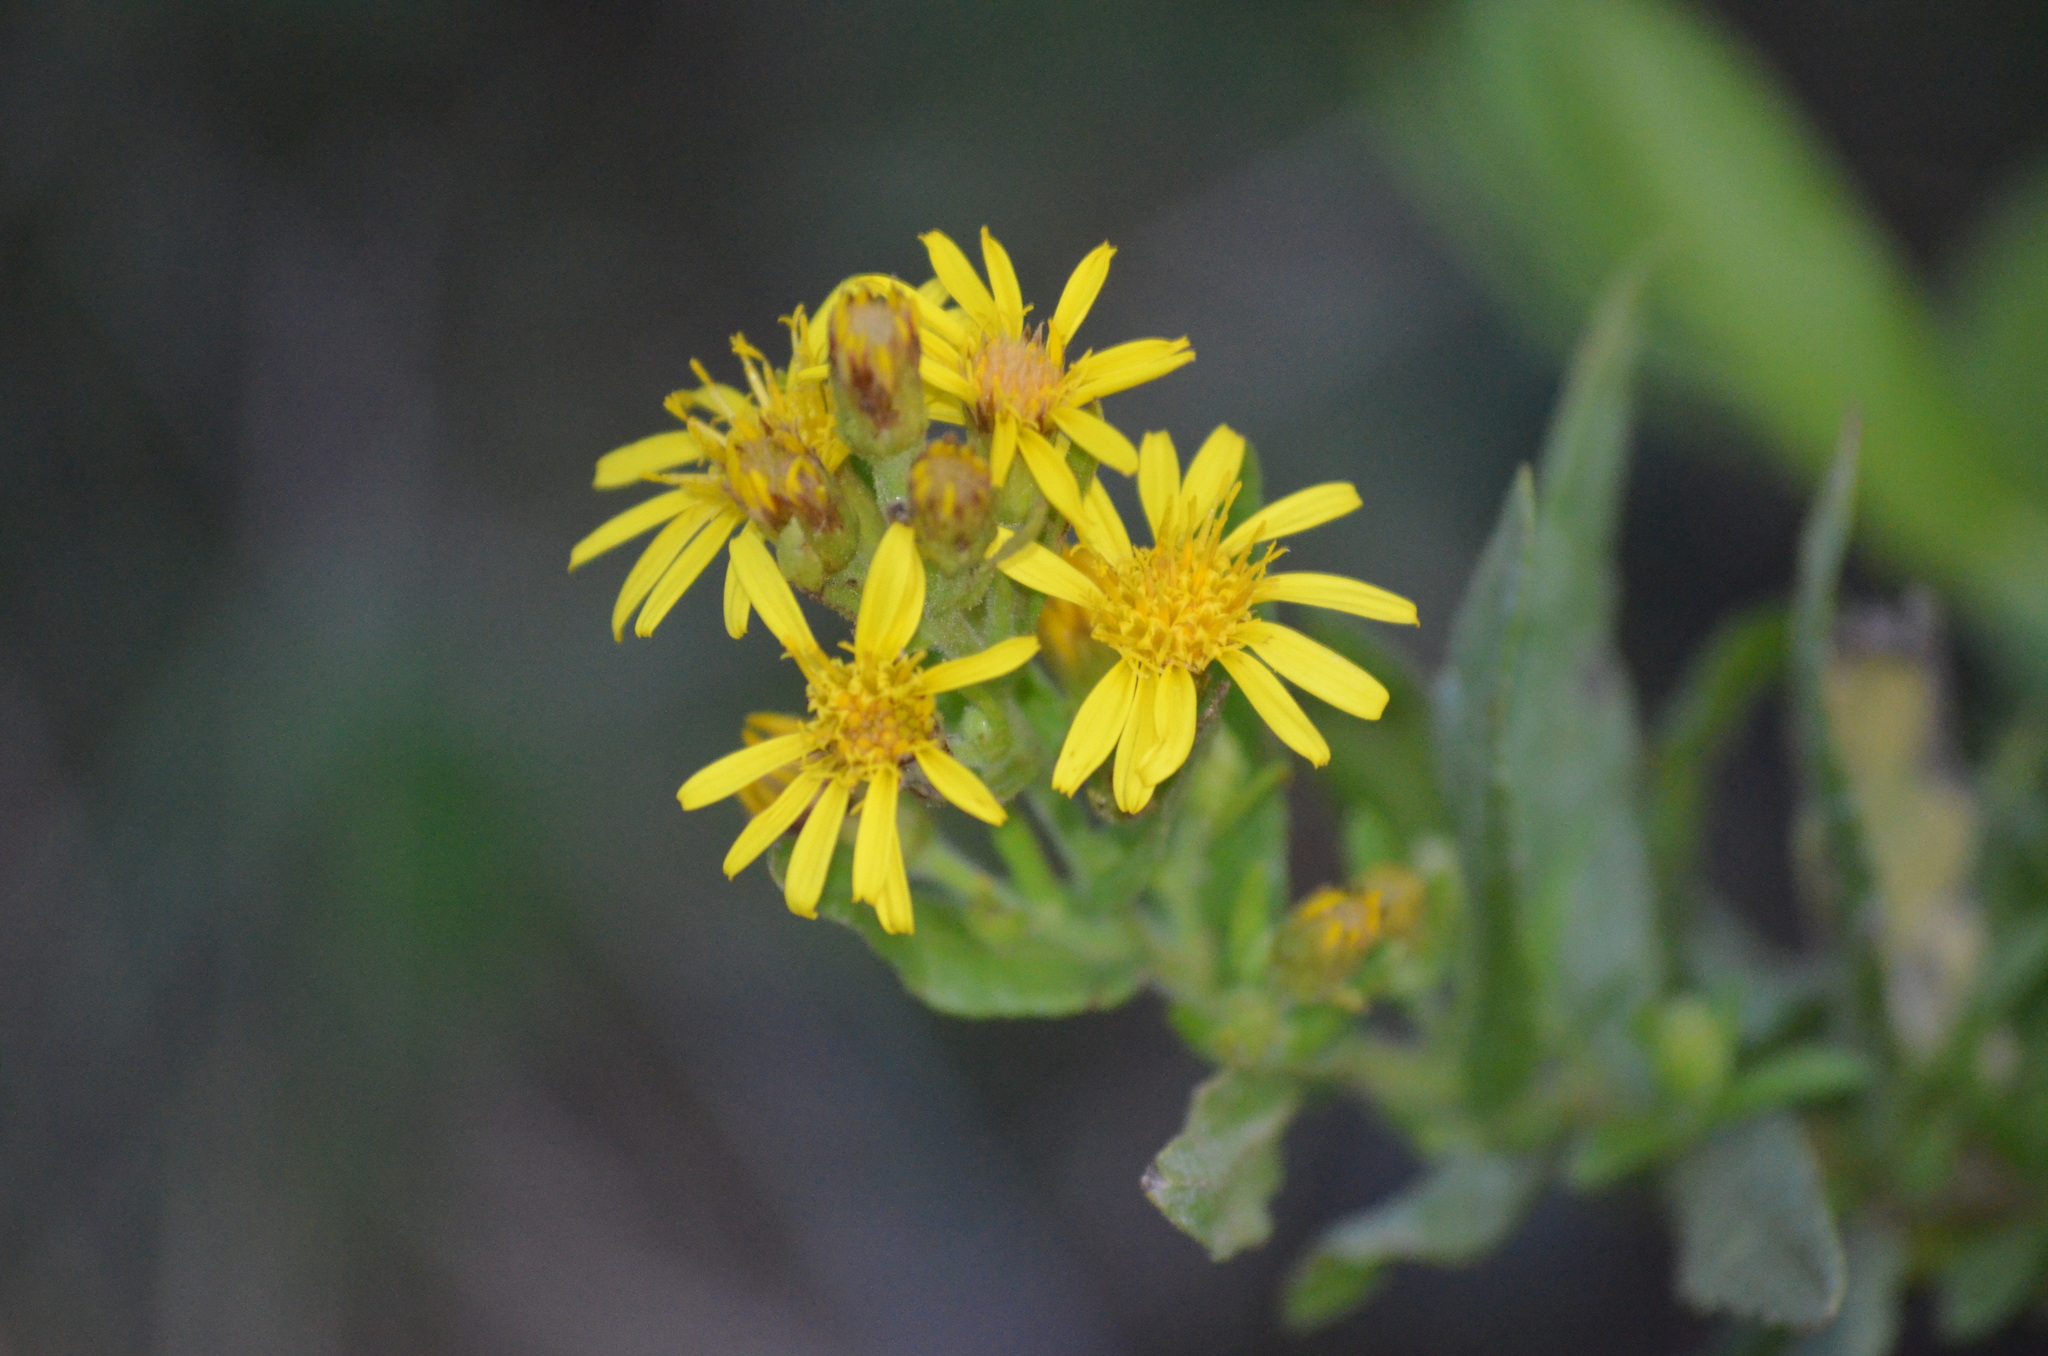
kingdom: Plantae
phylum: Tracheophyta
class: Magnoliopsida
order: Asterales
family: Asteraceae
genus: Dittrichia
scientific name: Dittrichia viscosa
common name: Woody fleabane
